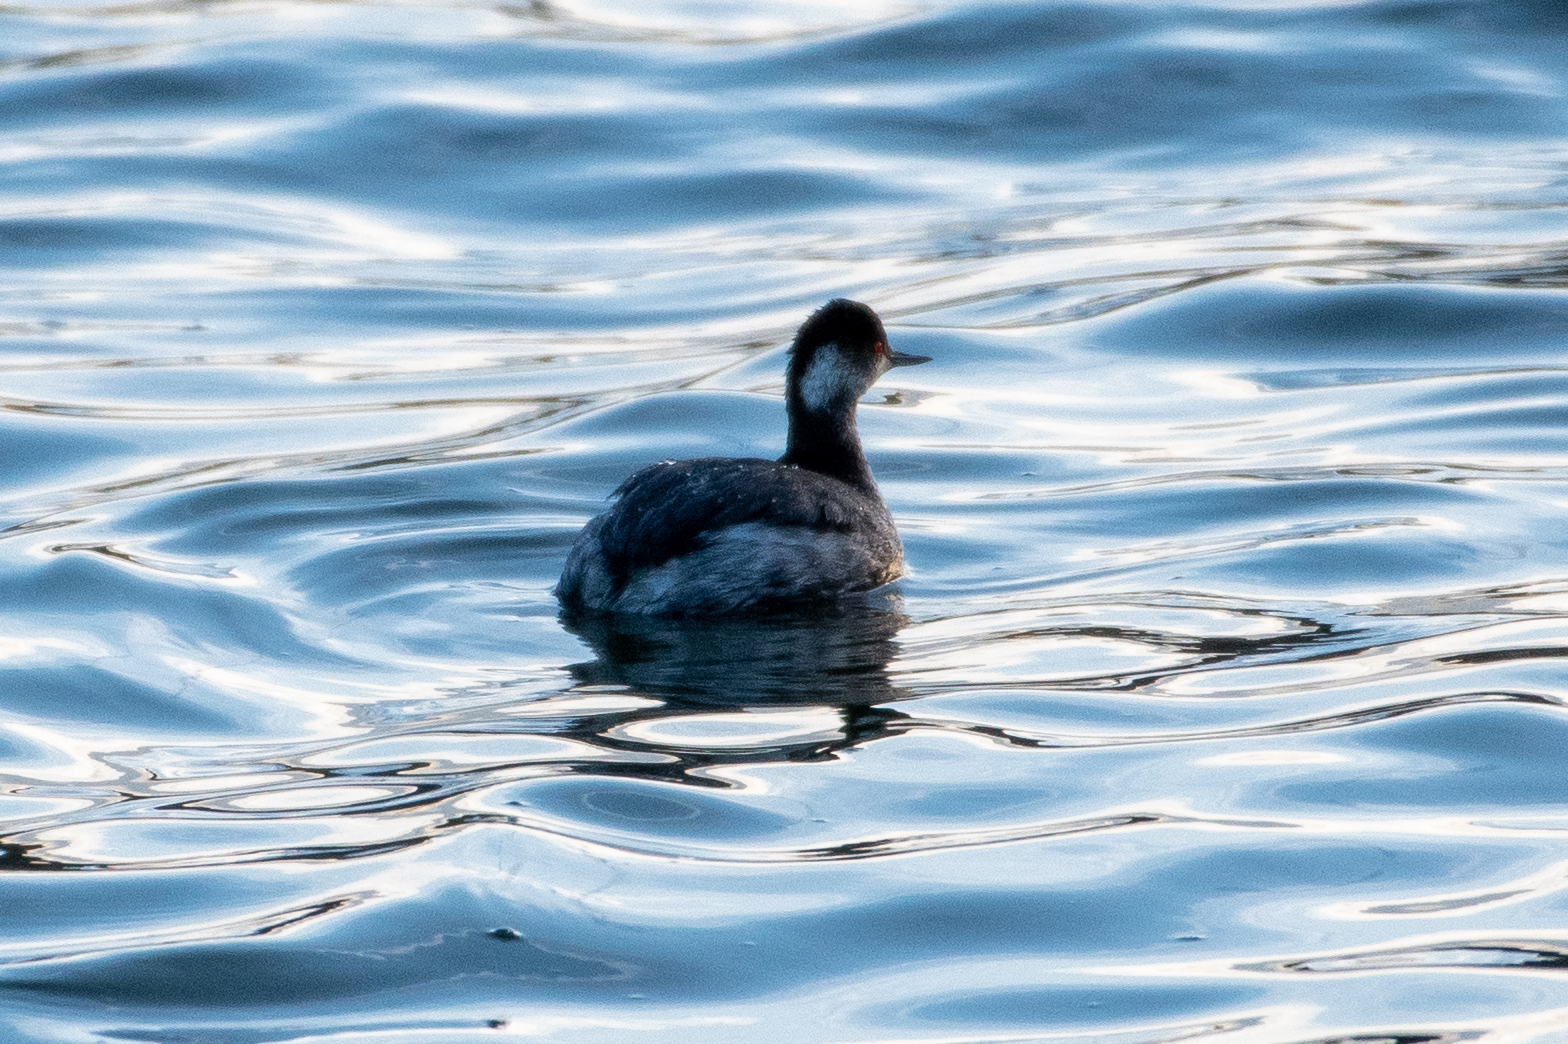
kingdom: Animalia
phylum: Chordata
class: Aves
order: Podicipediformes
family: Podicipedidae
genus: Podiceps
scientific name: Podiceps nigricollis
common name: Black-necked grebe
